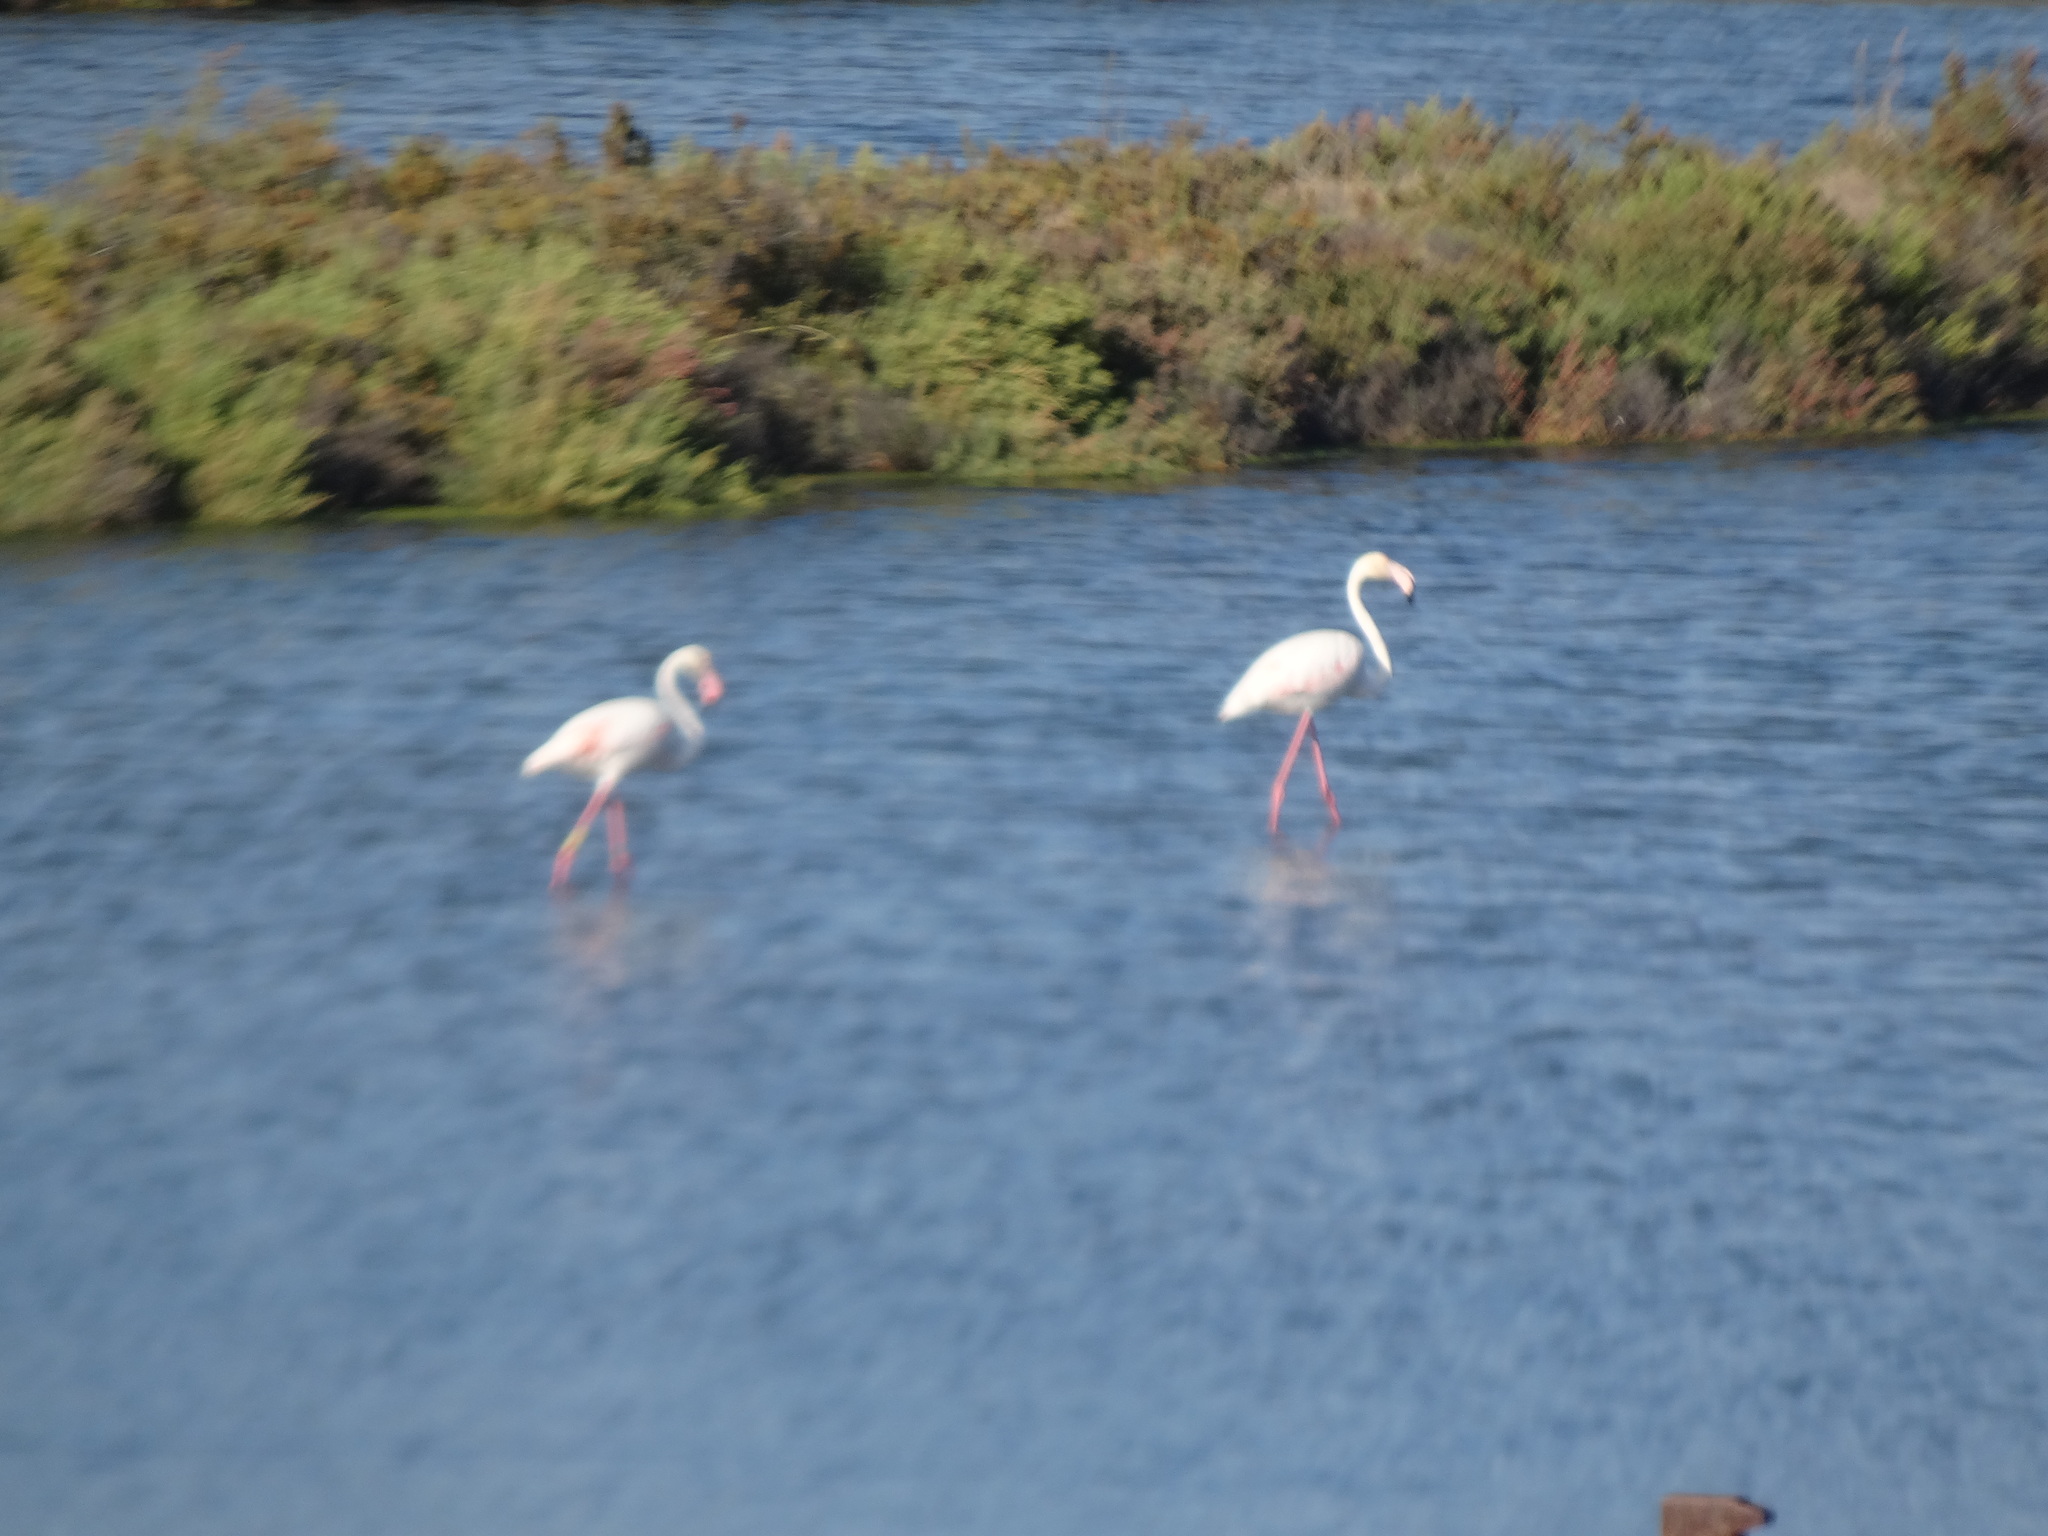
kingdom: Animalia
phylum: Chordata
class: Aves
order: Phoenicopteriformes
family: Phoenicopteridae
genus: Phoenicopterus
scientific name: Phoenicopterus roseus
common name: Greater flamingo
